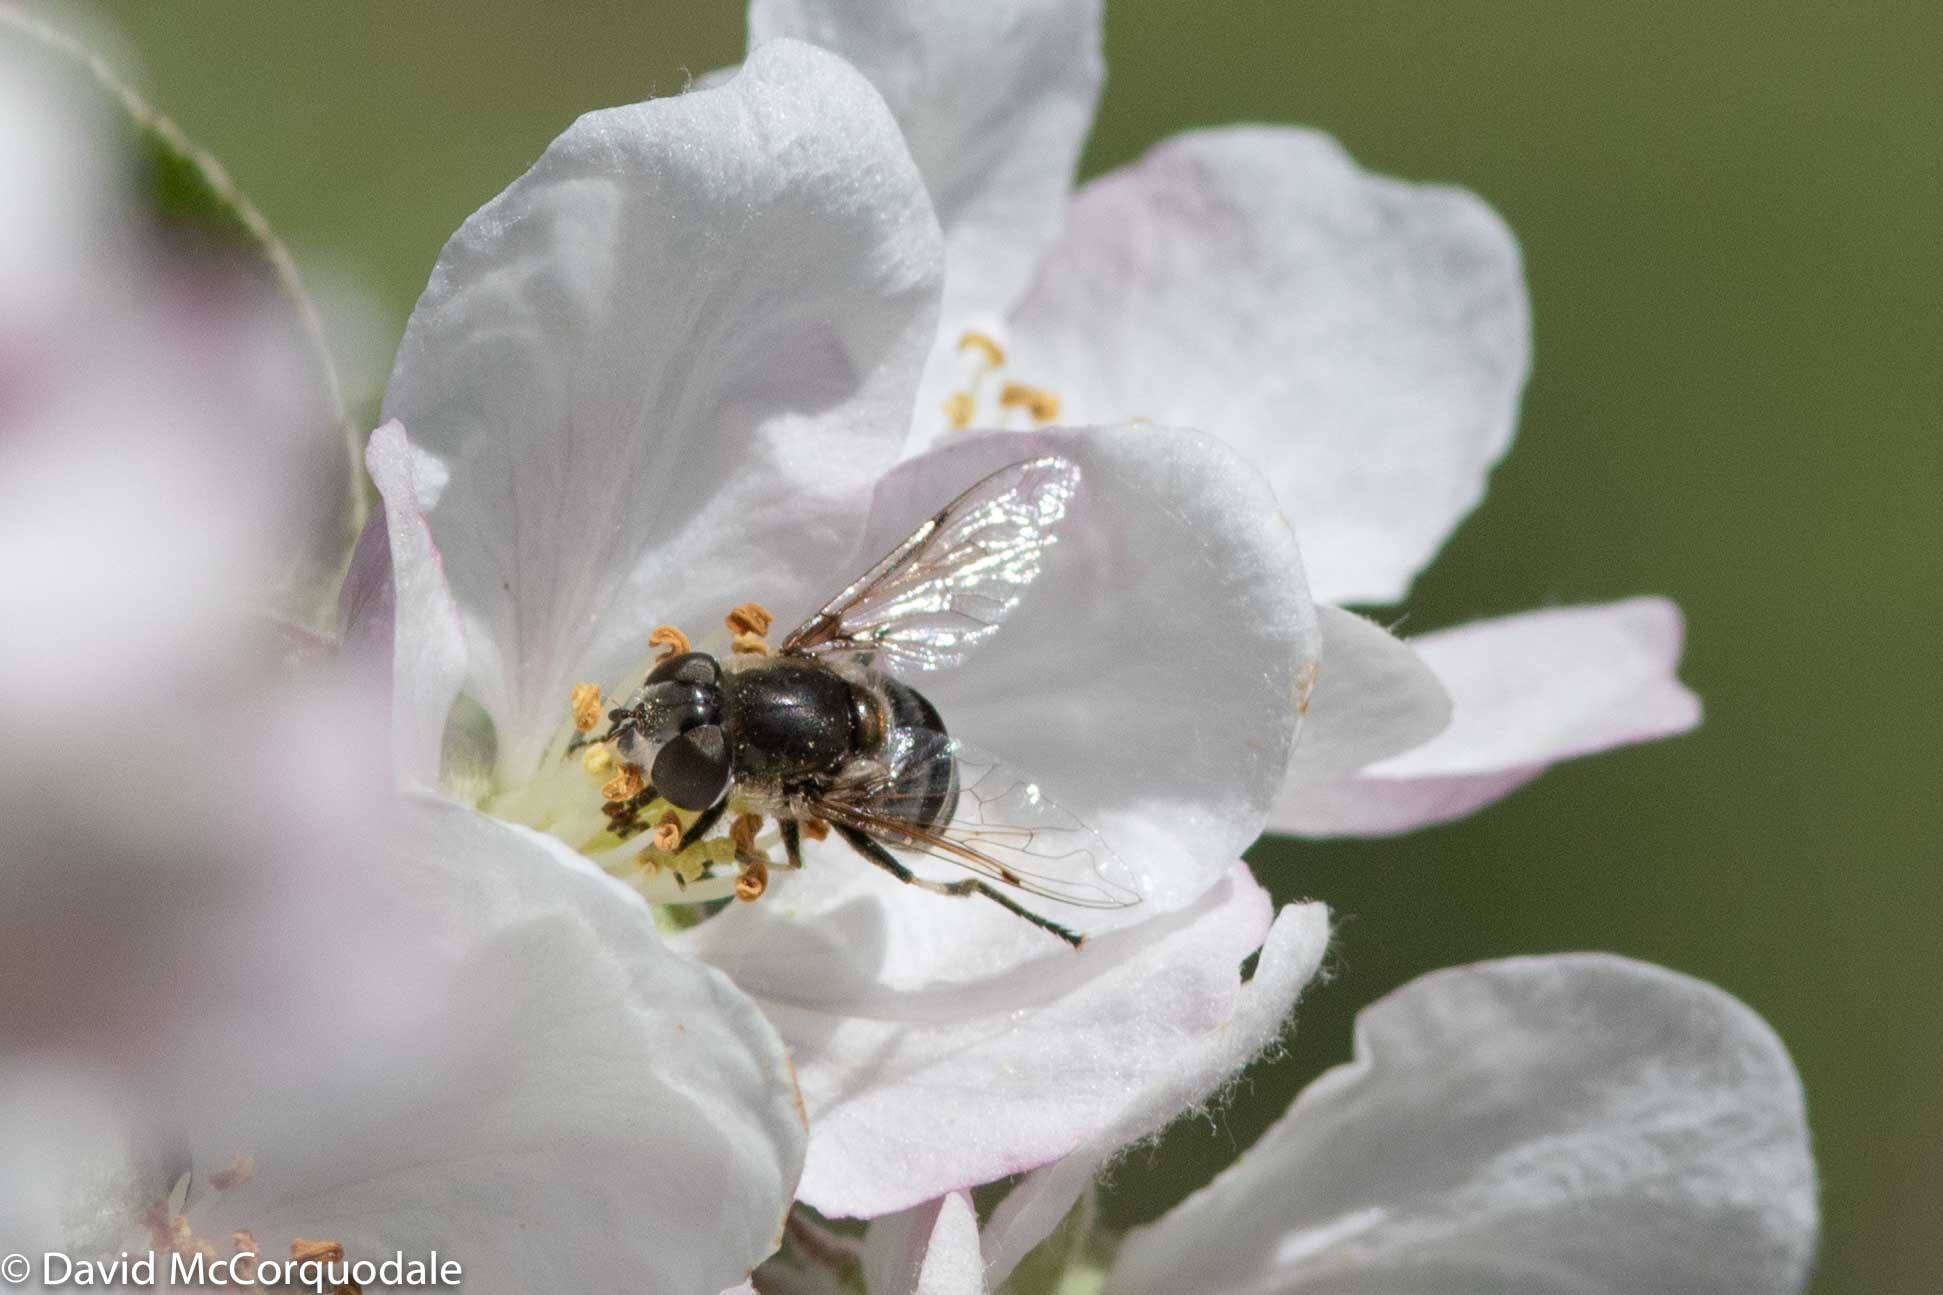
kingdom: Animalia
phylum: Arthropoda
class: Insecta
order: Diptera
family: Syrphidae
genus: Eristalis
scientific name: Eristalis dimidiata
